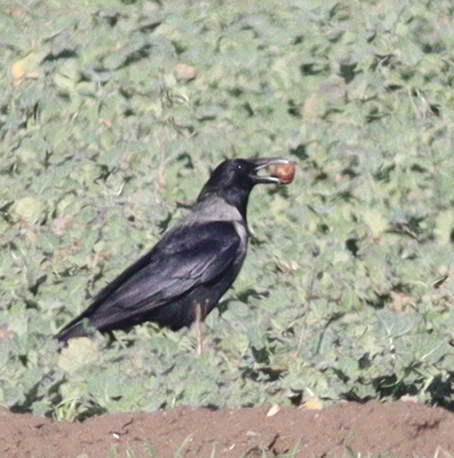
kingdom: Animalia
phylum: Chordata
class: Aves
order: Passeriformes
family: Corvidae
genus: Corvus
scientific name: Corvus
